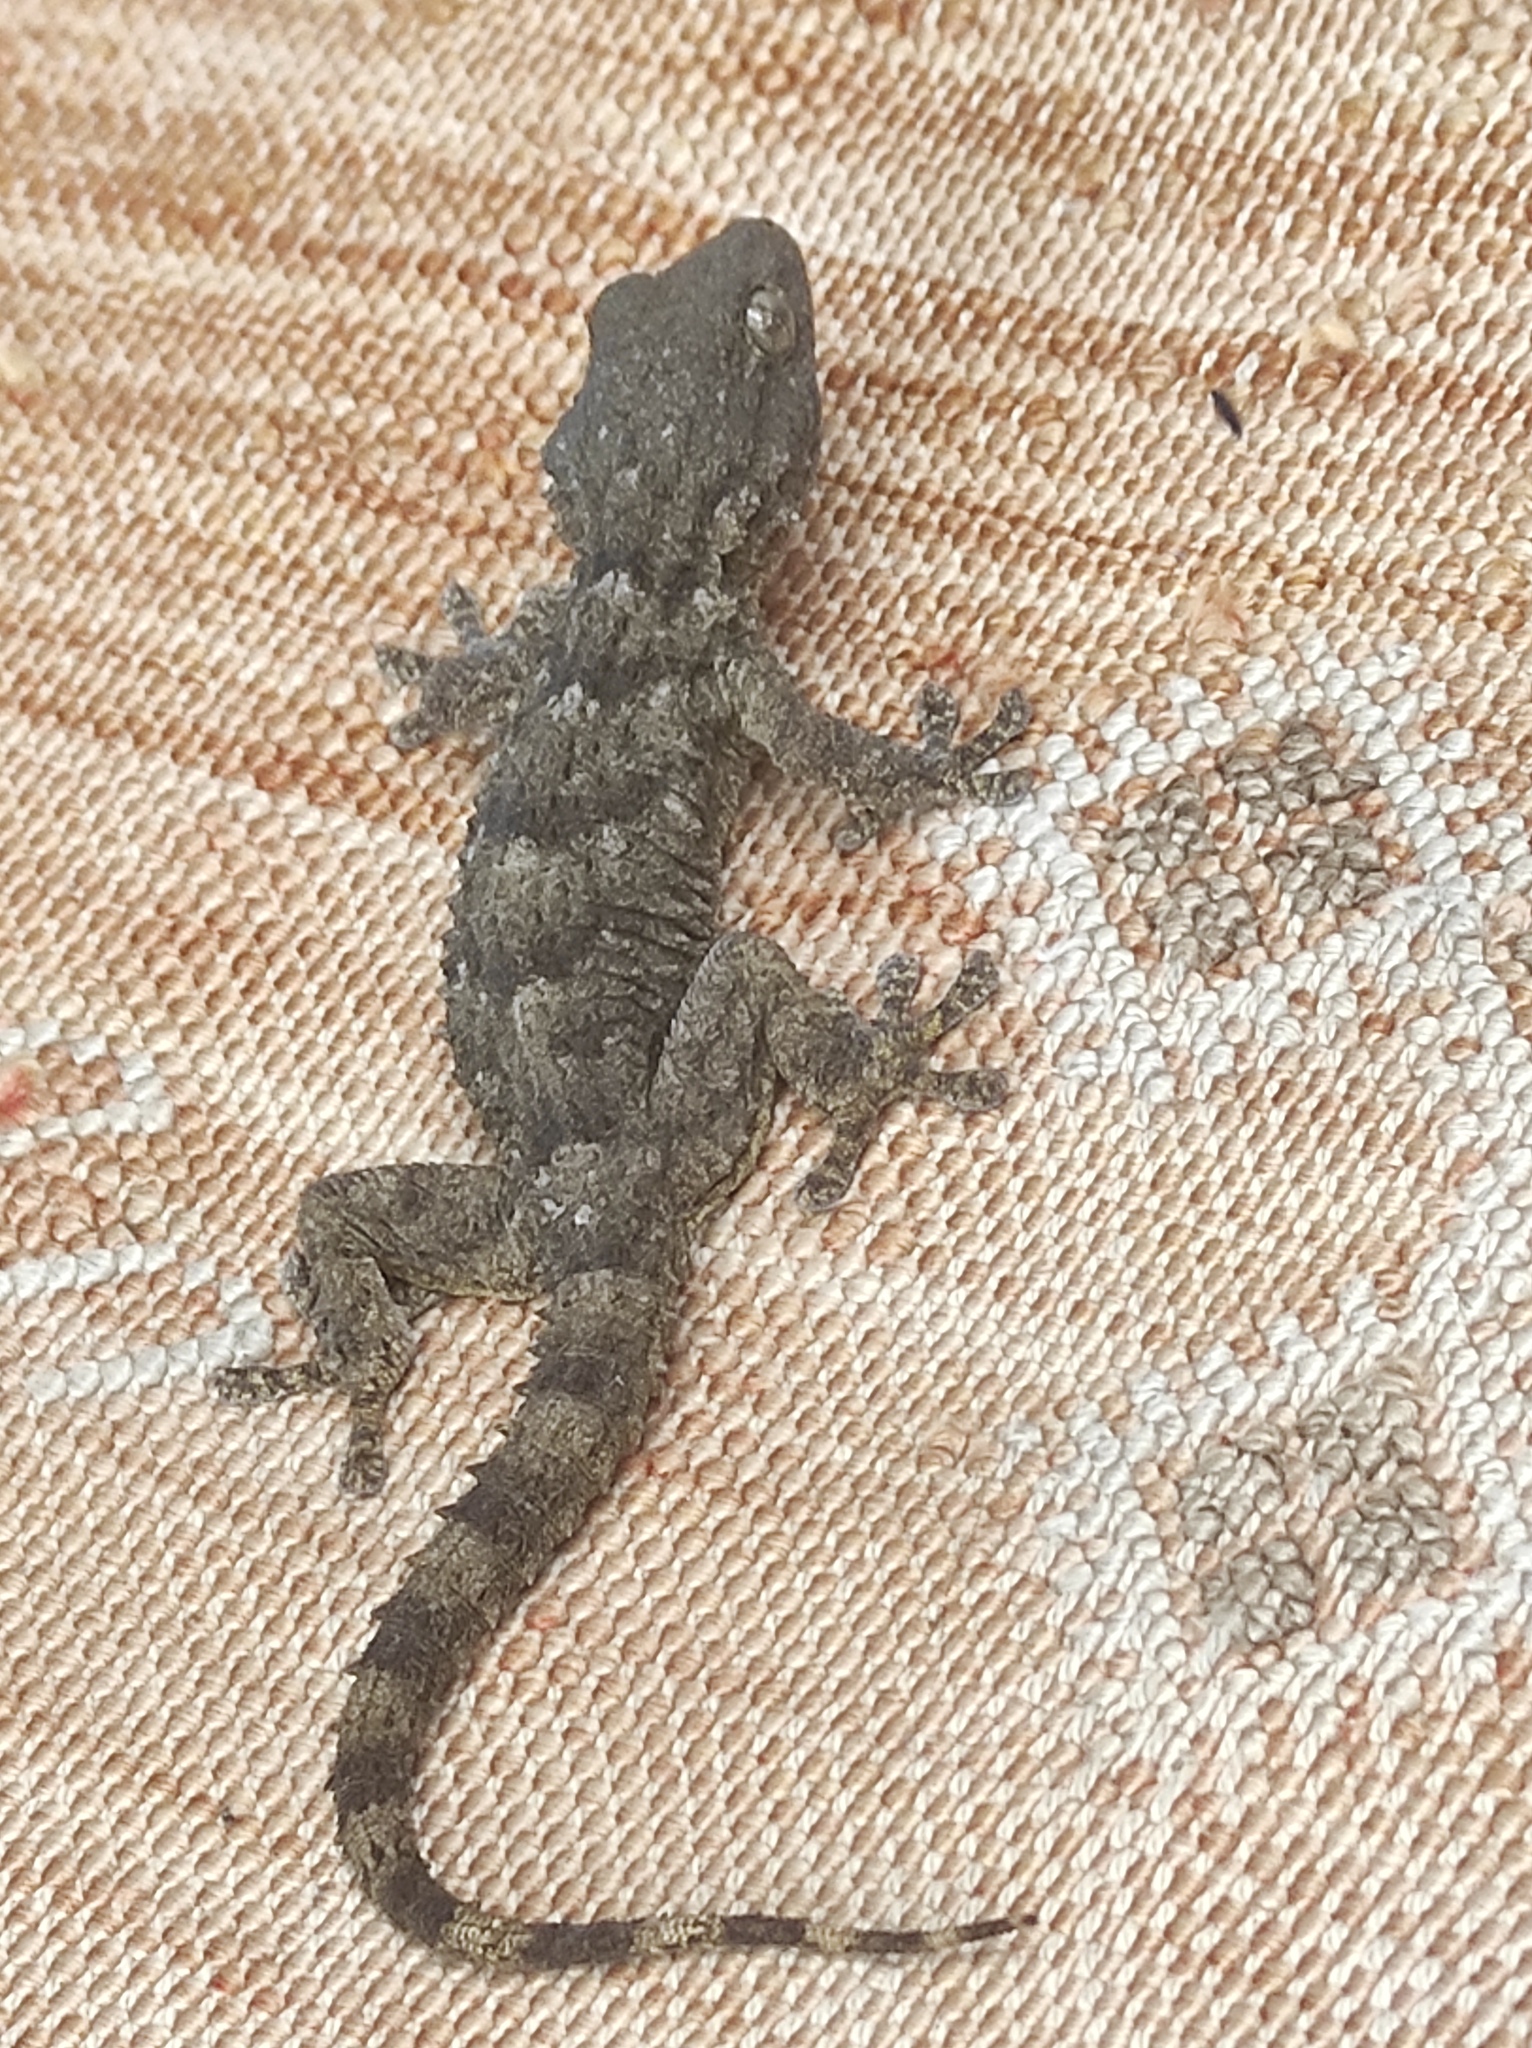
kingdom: Animalia
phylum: Chordata
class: Squamata
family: Phyllodactylidae
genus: Tarentola
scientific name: Tarentola mauritanica
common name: Moorish gecko
